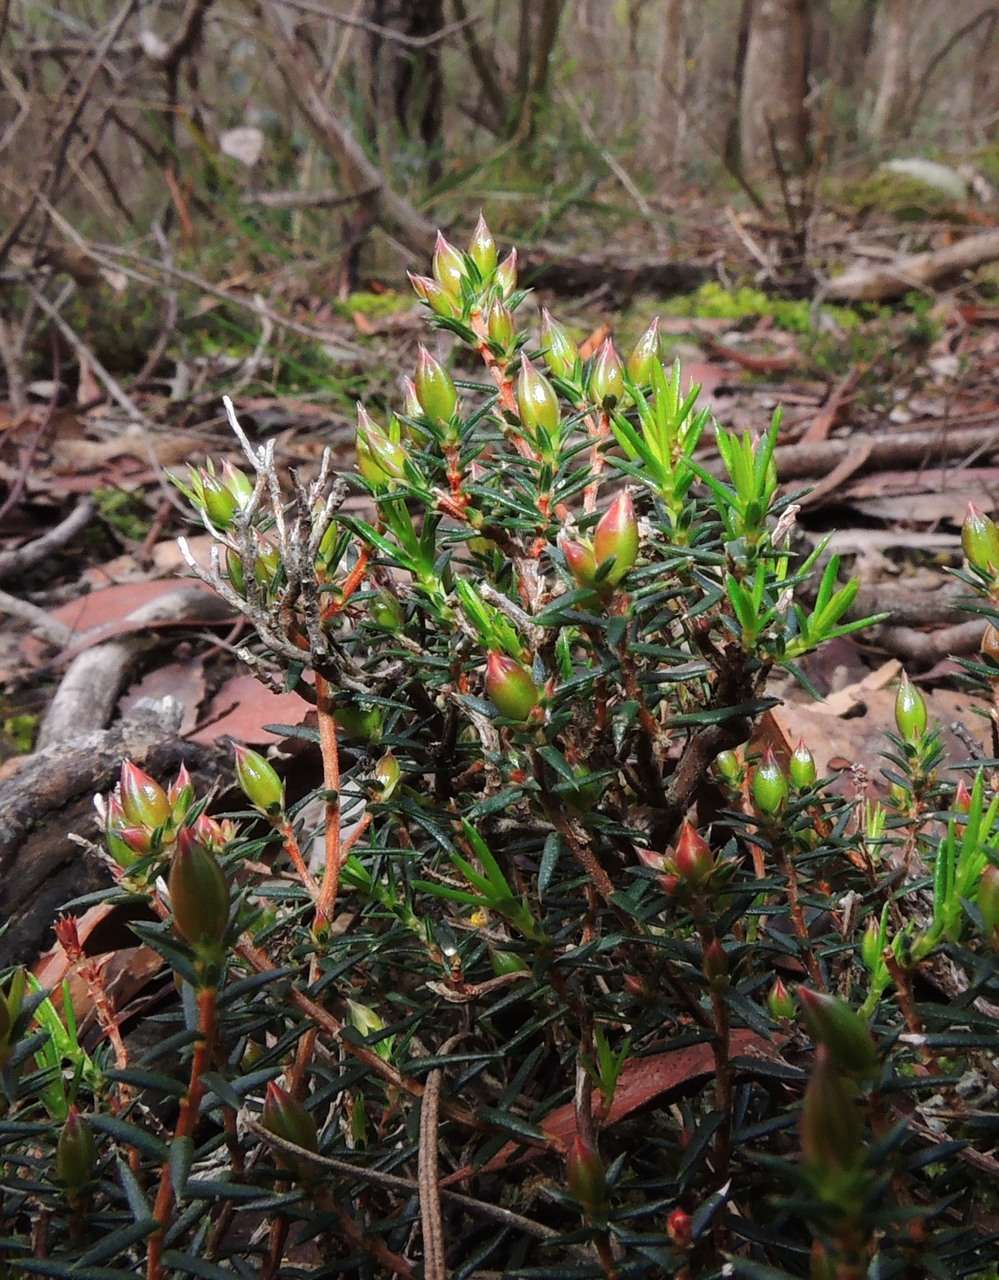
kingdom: Plantae
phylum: Tracheophyta
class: Magnoliopsida
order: Dilleniales
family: Dilleniaceae
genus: Hibbertia
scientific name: Hibbertia exutiacies
